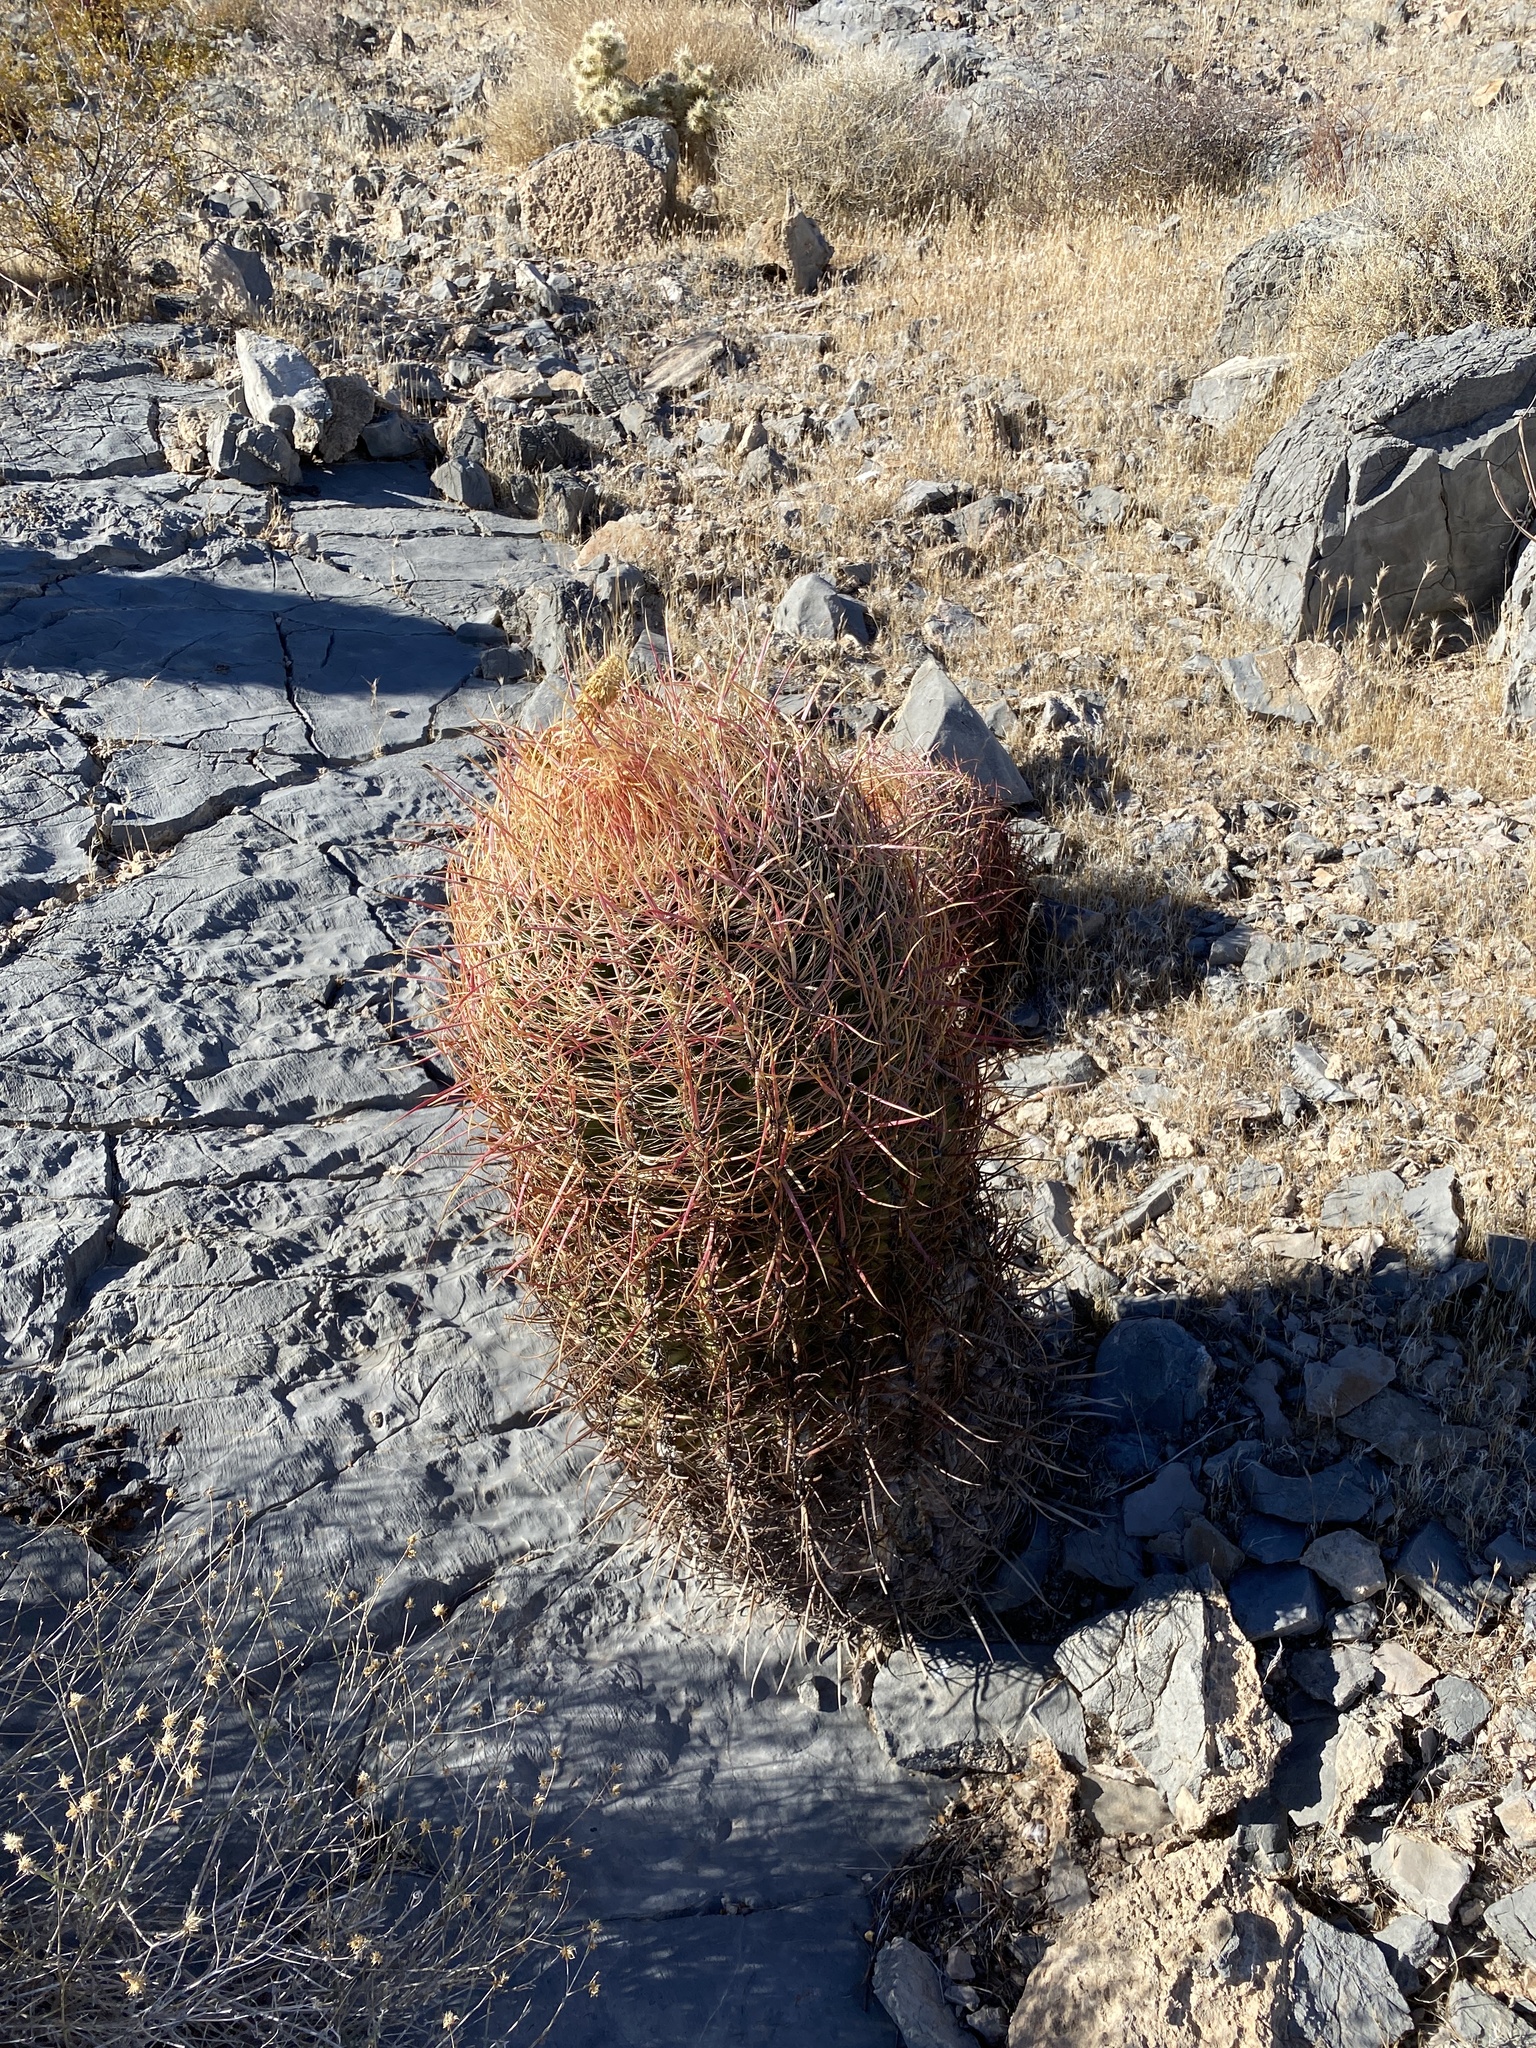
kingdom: Plantae
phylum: Tracheophyta
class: Magnoliopsida
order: Caryophyllales
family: Cactaceae
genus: Ferocactus
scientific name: Ferocactus cylindraceus
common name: California barrel cactus
